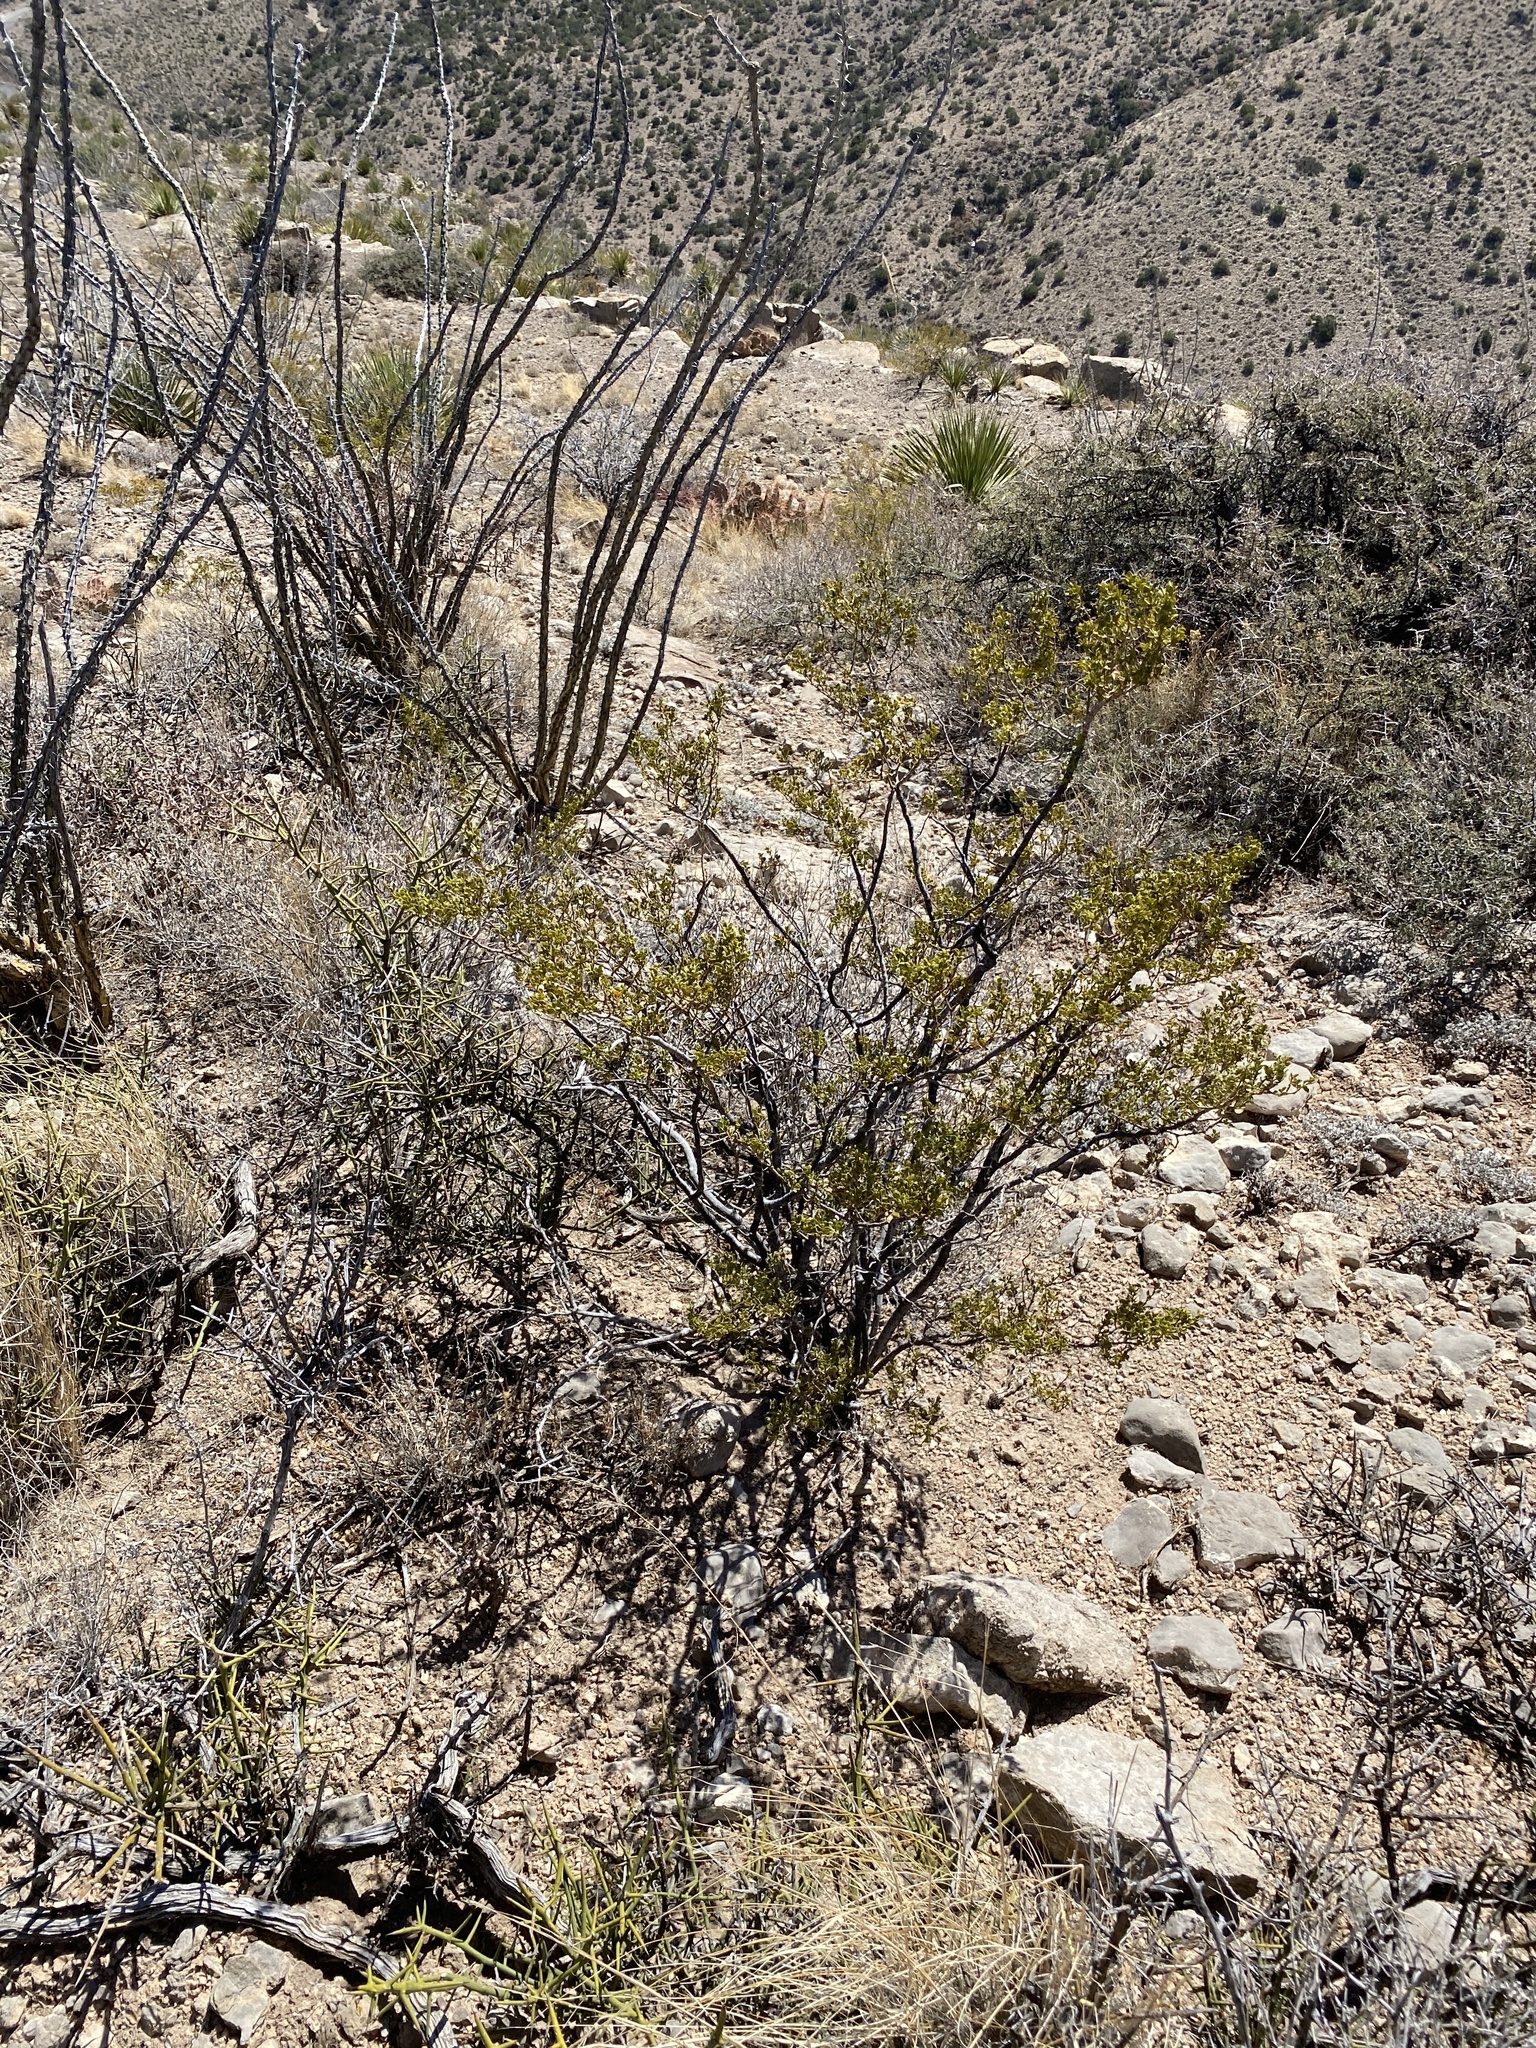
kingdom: Plantae
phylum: Tracheophyta
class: Magnoliopsida
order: Zygophyllales
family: Zygophyllaceae
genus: Larrea
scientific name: Larrea tridentata
